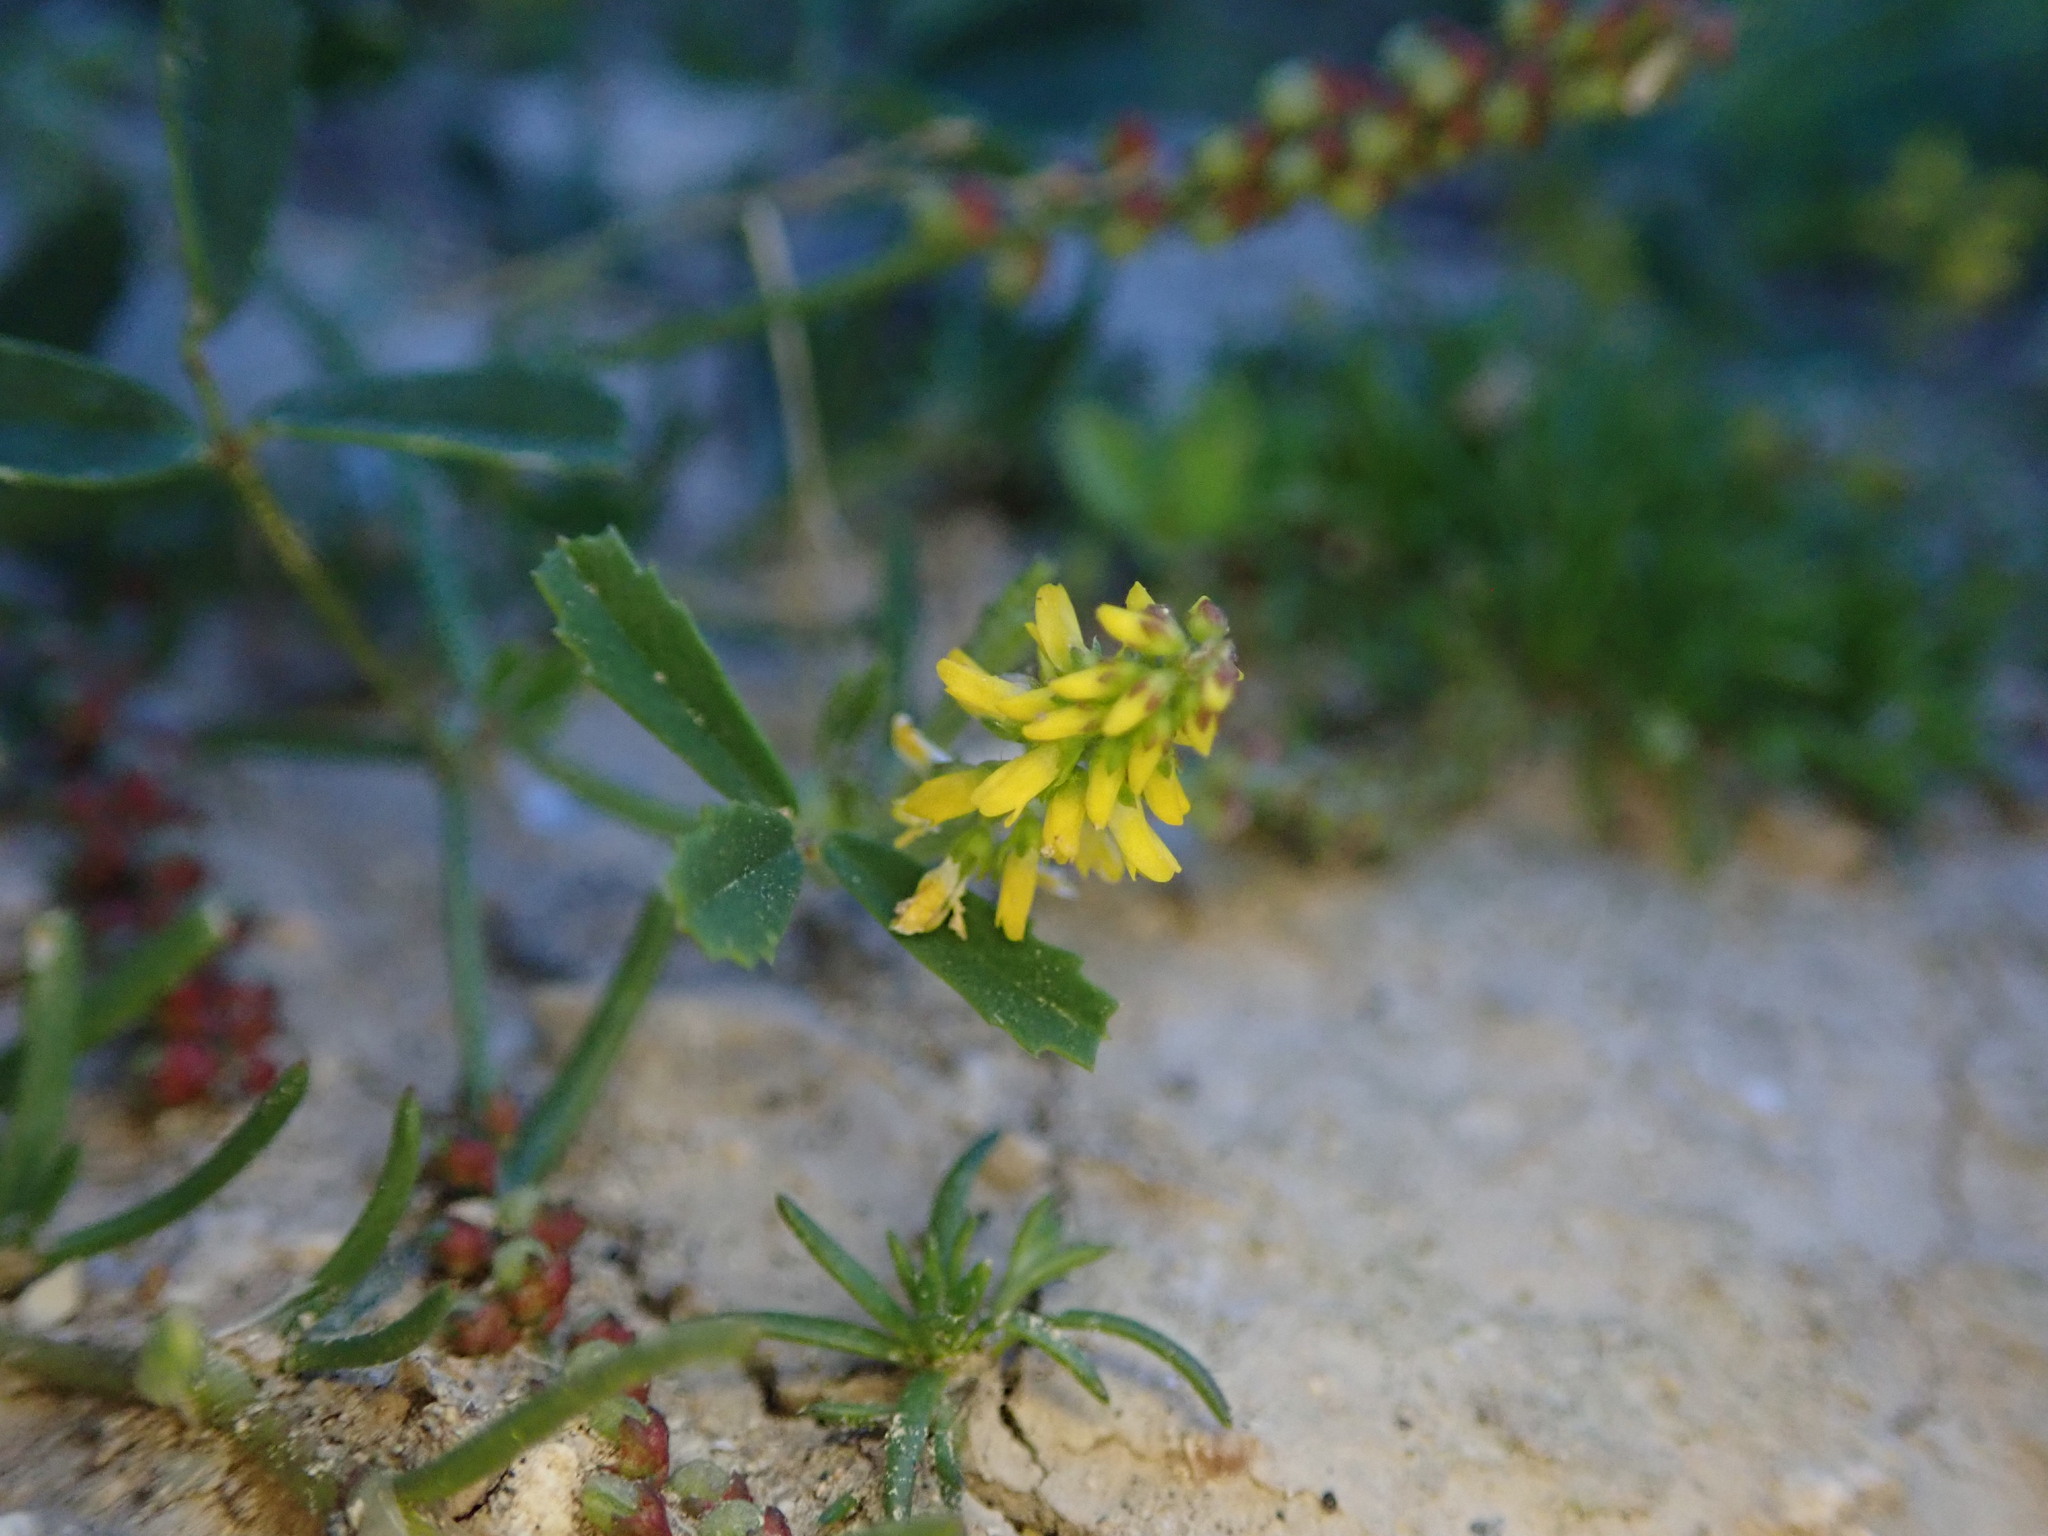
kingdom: Plantae
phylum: Tracheophyta
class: Magnoliopsida
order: Fabales
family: Fabaceae
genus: Melilotus
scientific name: Melilotus indicus
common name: Small melilot
